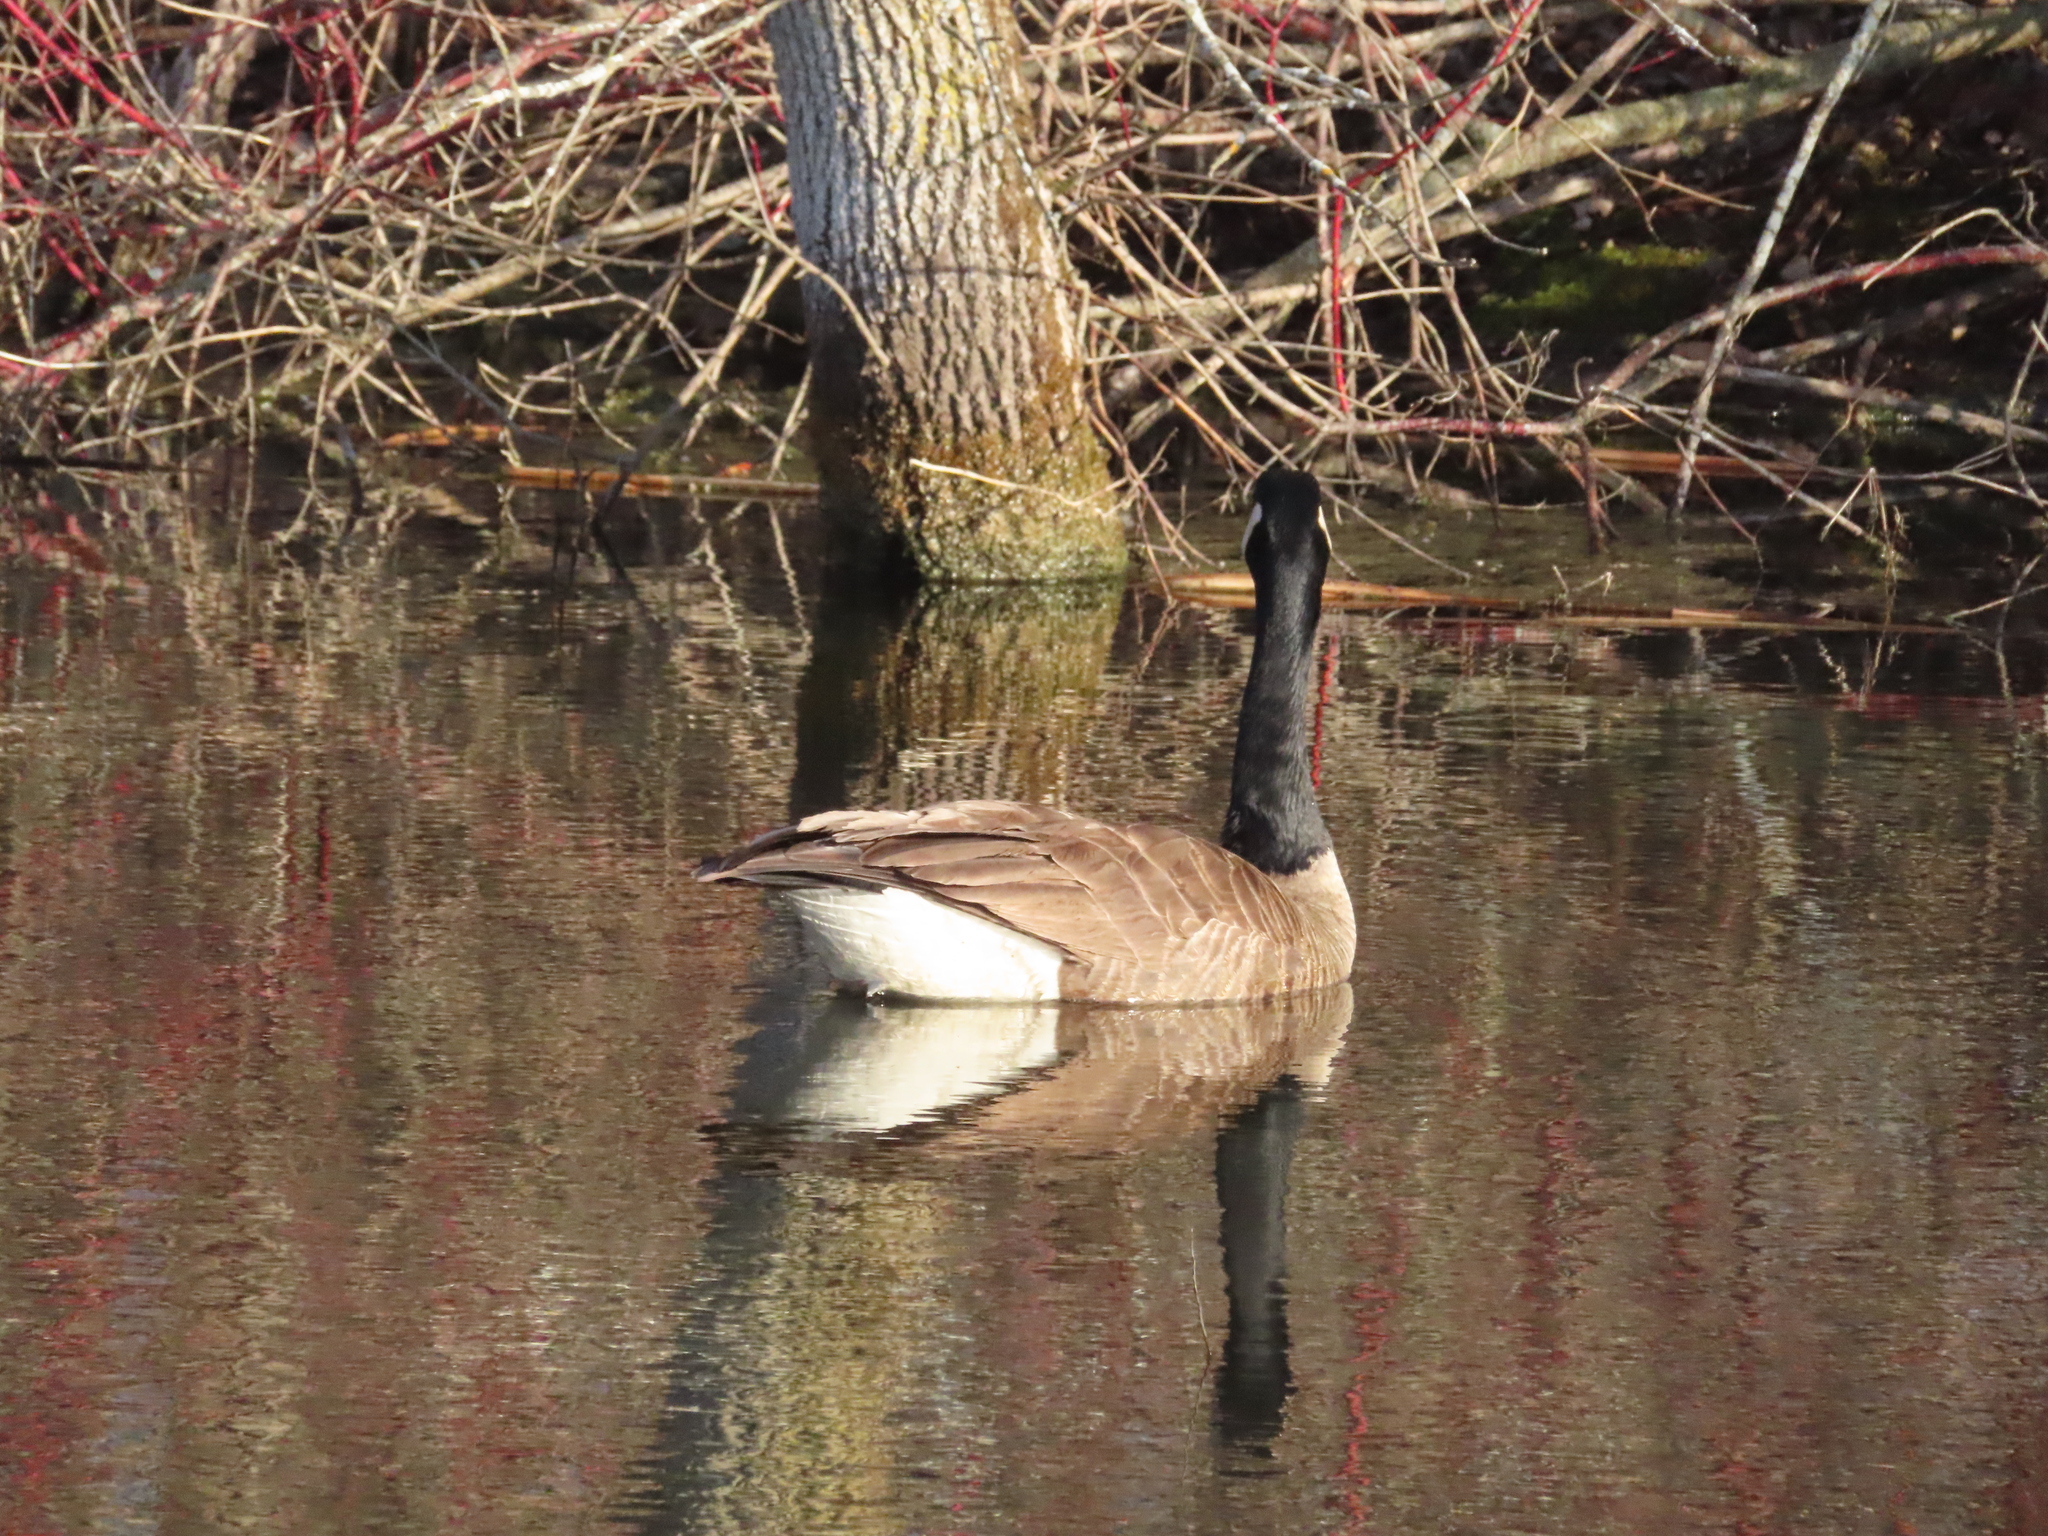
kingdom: Animalia
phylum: Chordata
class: Aves
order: Anseriformes
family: Anatidae
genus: Branta
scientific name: Branta canadensis
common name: Canada goose
